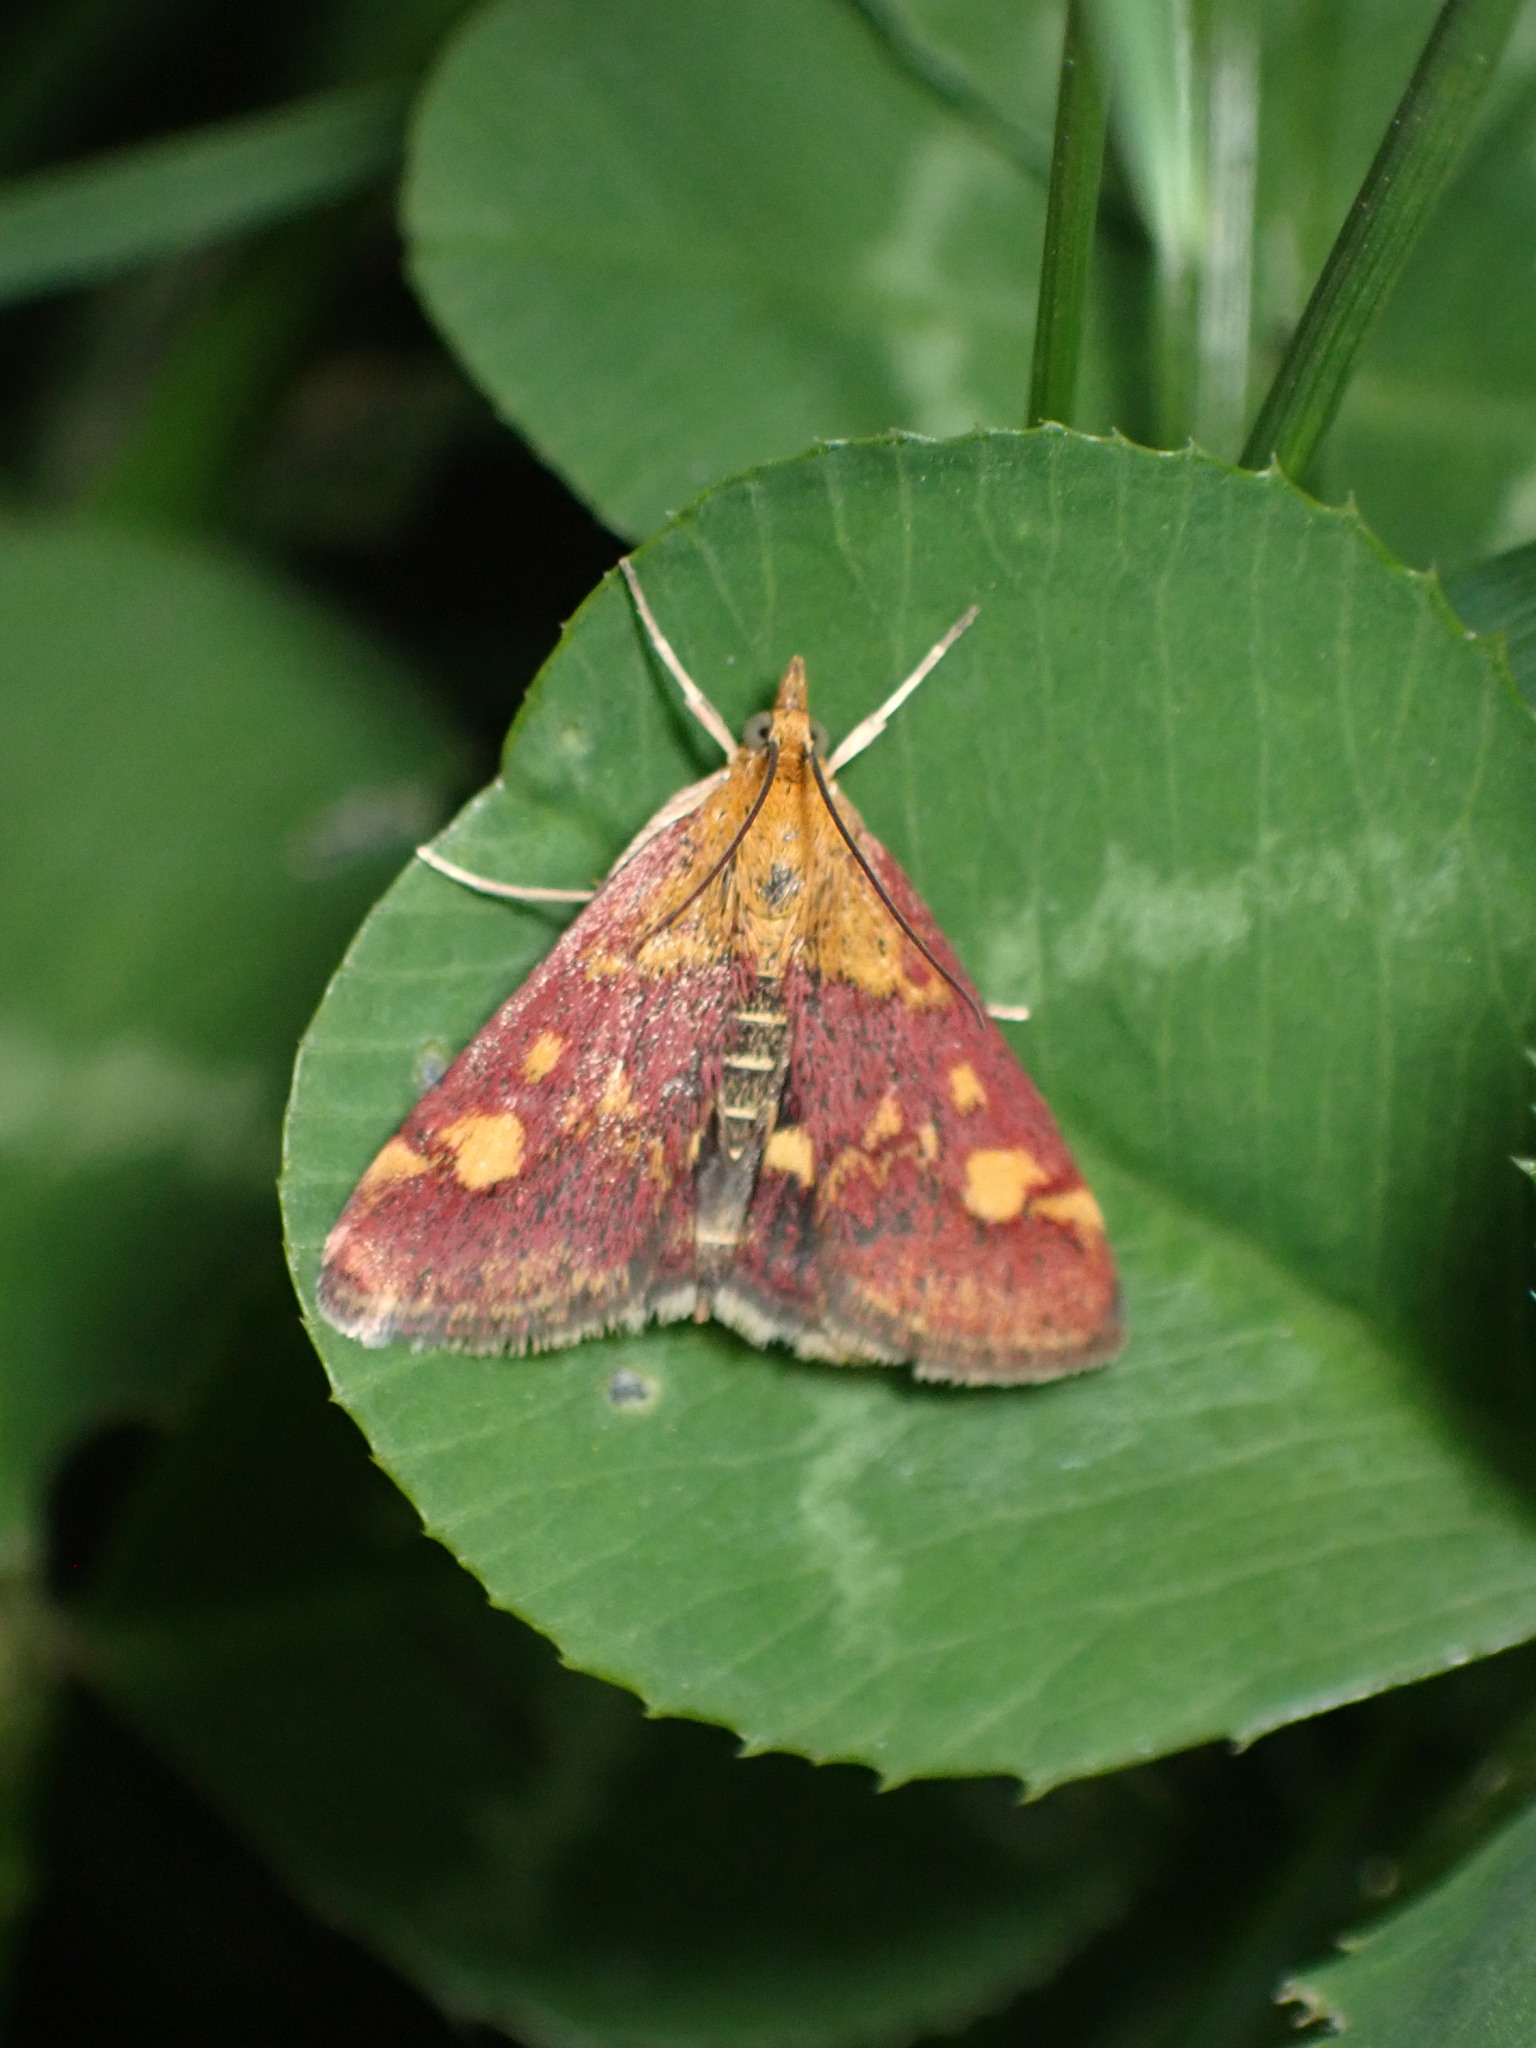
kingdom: Animalia
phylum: Arthropoda
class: Insecta
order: Lepidoptera
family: Crambidae
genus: Pyrausta
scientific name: Pyrausta aurata
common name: Small purple & gold
